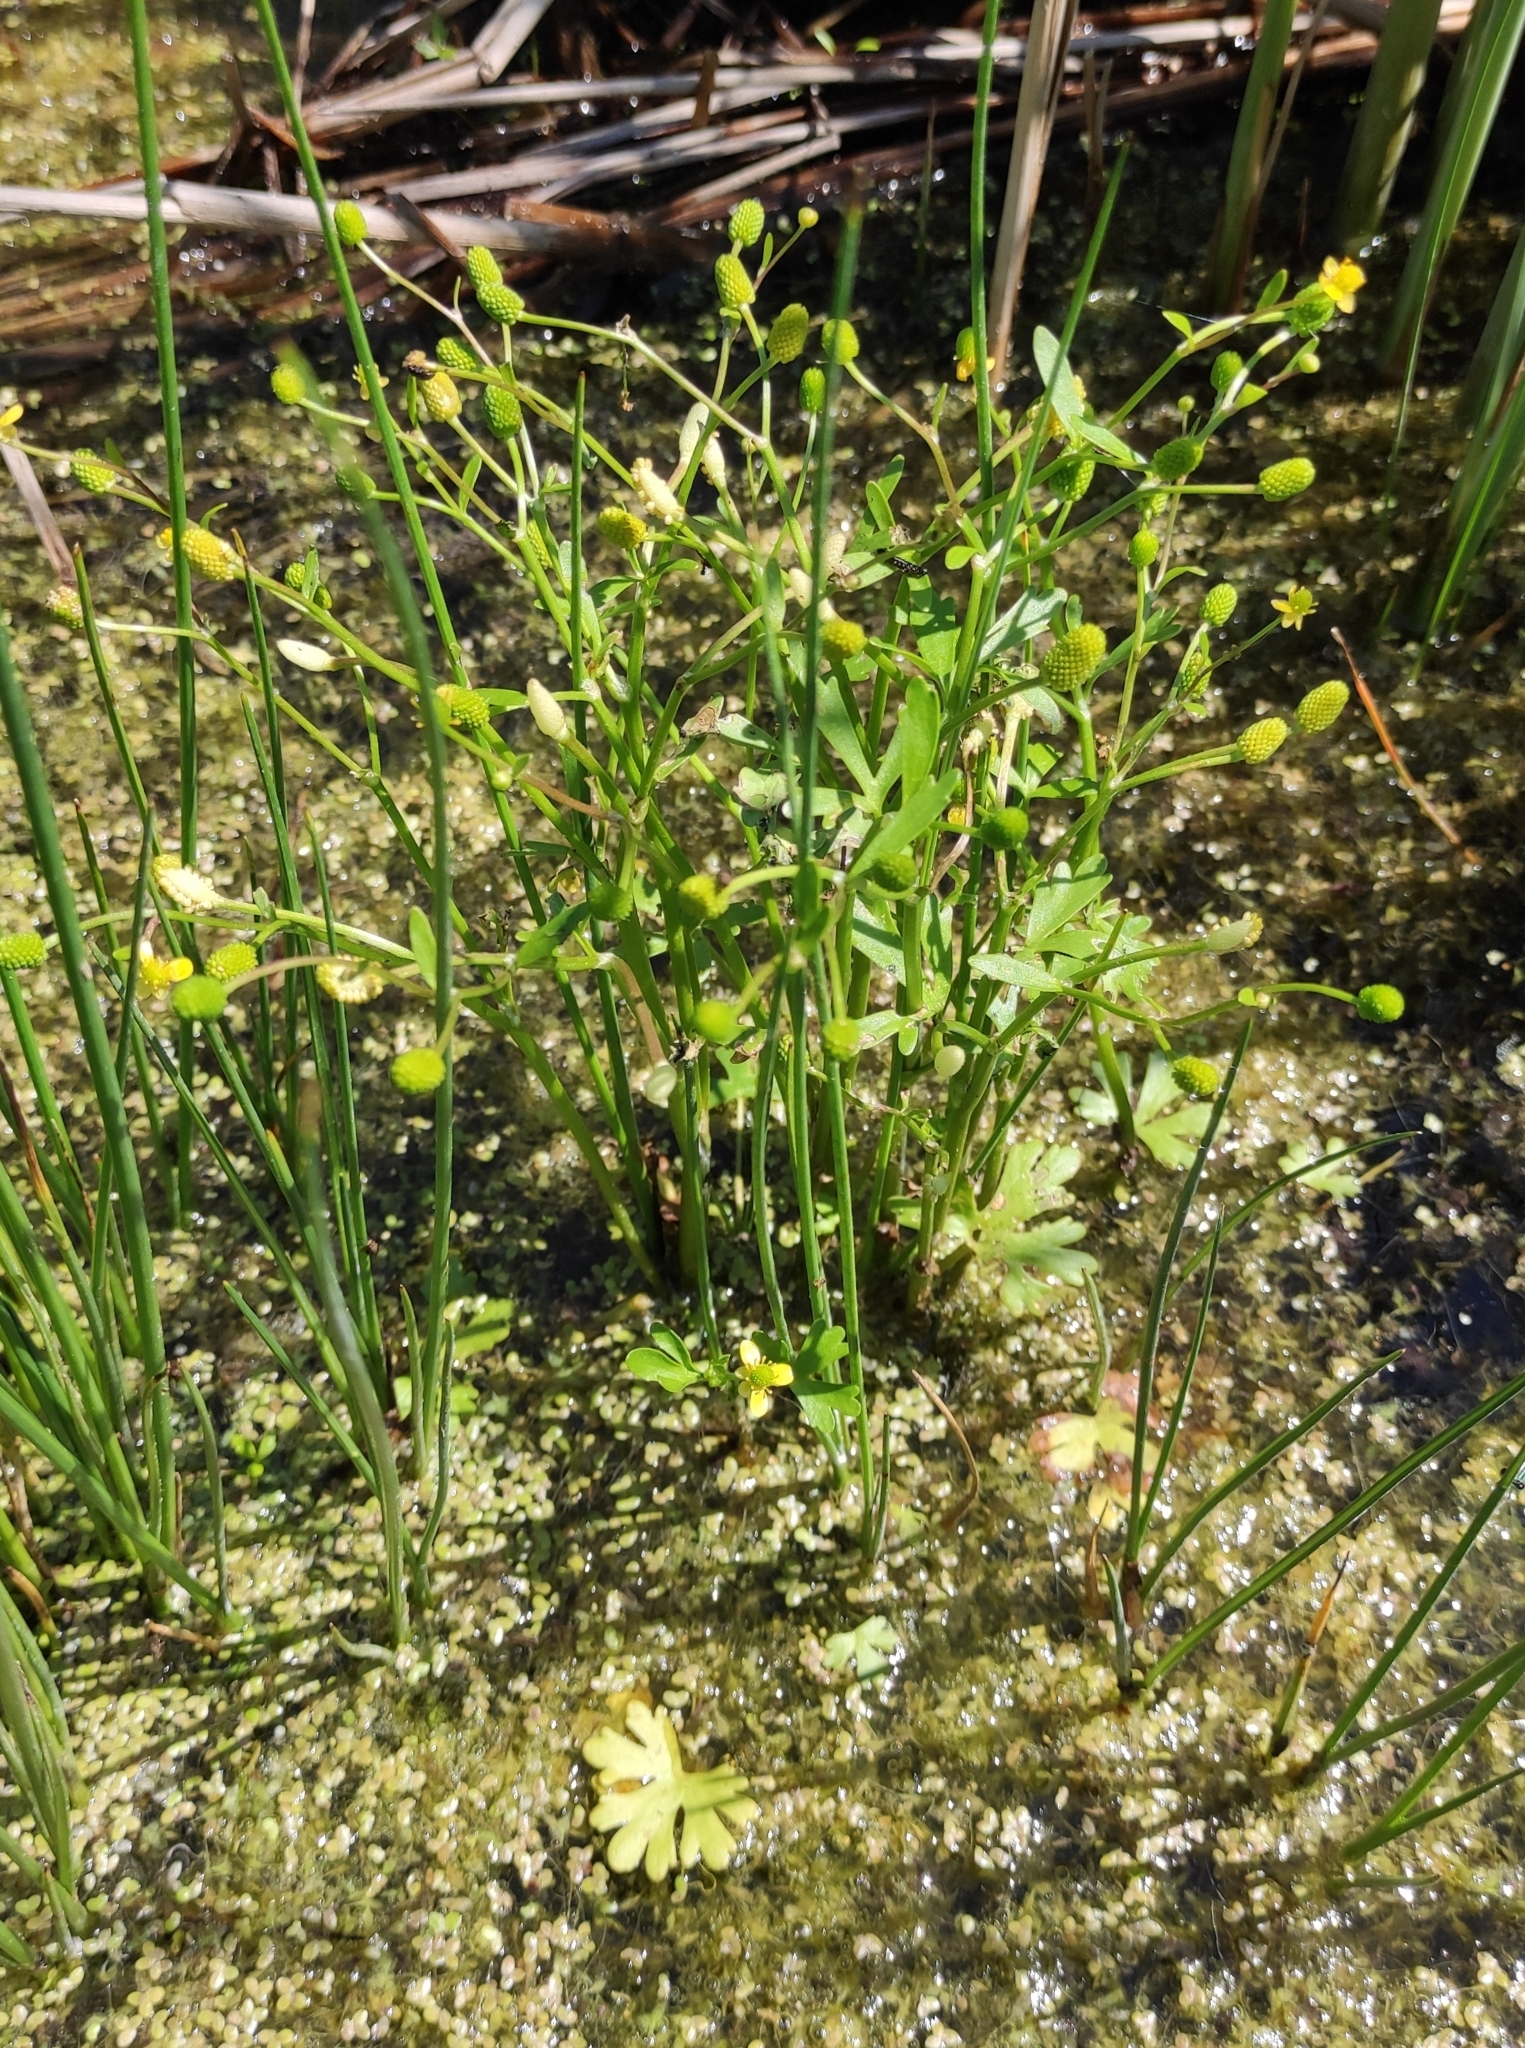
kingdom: Plantae
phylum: Tracheophyta
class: Magnoliopsida
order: Ranunculales
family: Ranunculaceae
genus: Ranunculus
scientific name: Ranunculus sceleratus
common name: Celery-leaved buttercup
